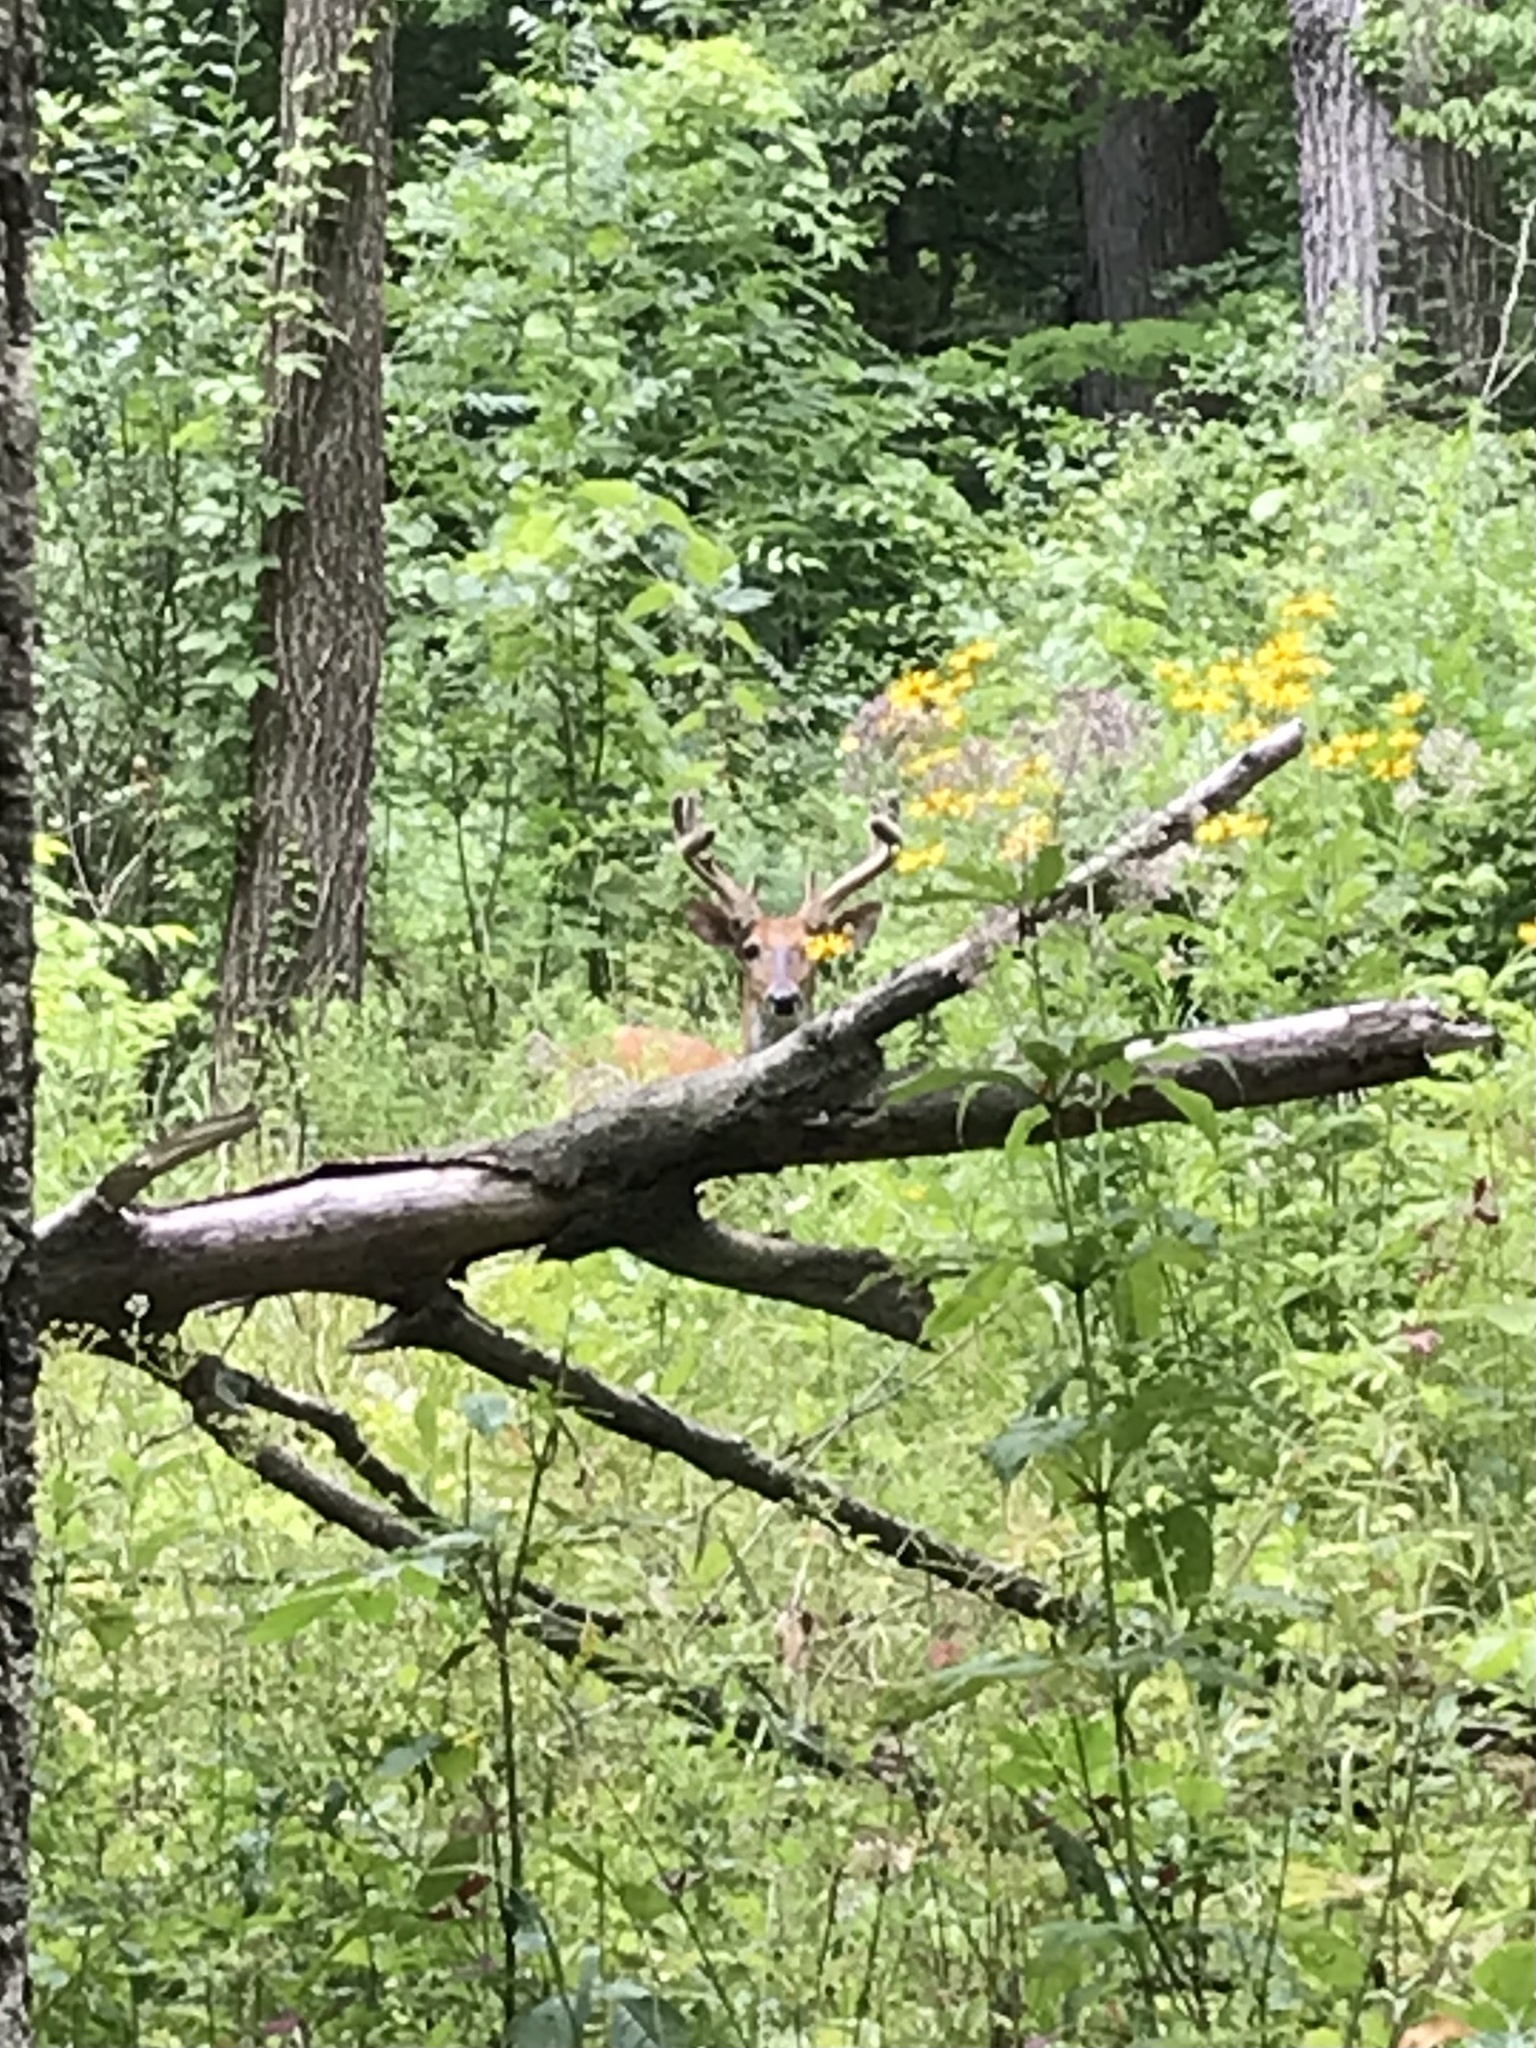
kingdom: Animalia
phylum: Chordata
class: Mammalia
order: Artiodactyla
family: Cervidae
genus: Odocoileus
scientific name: Odocoileus virginianus
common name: White-tailed deer
